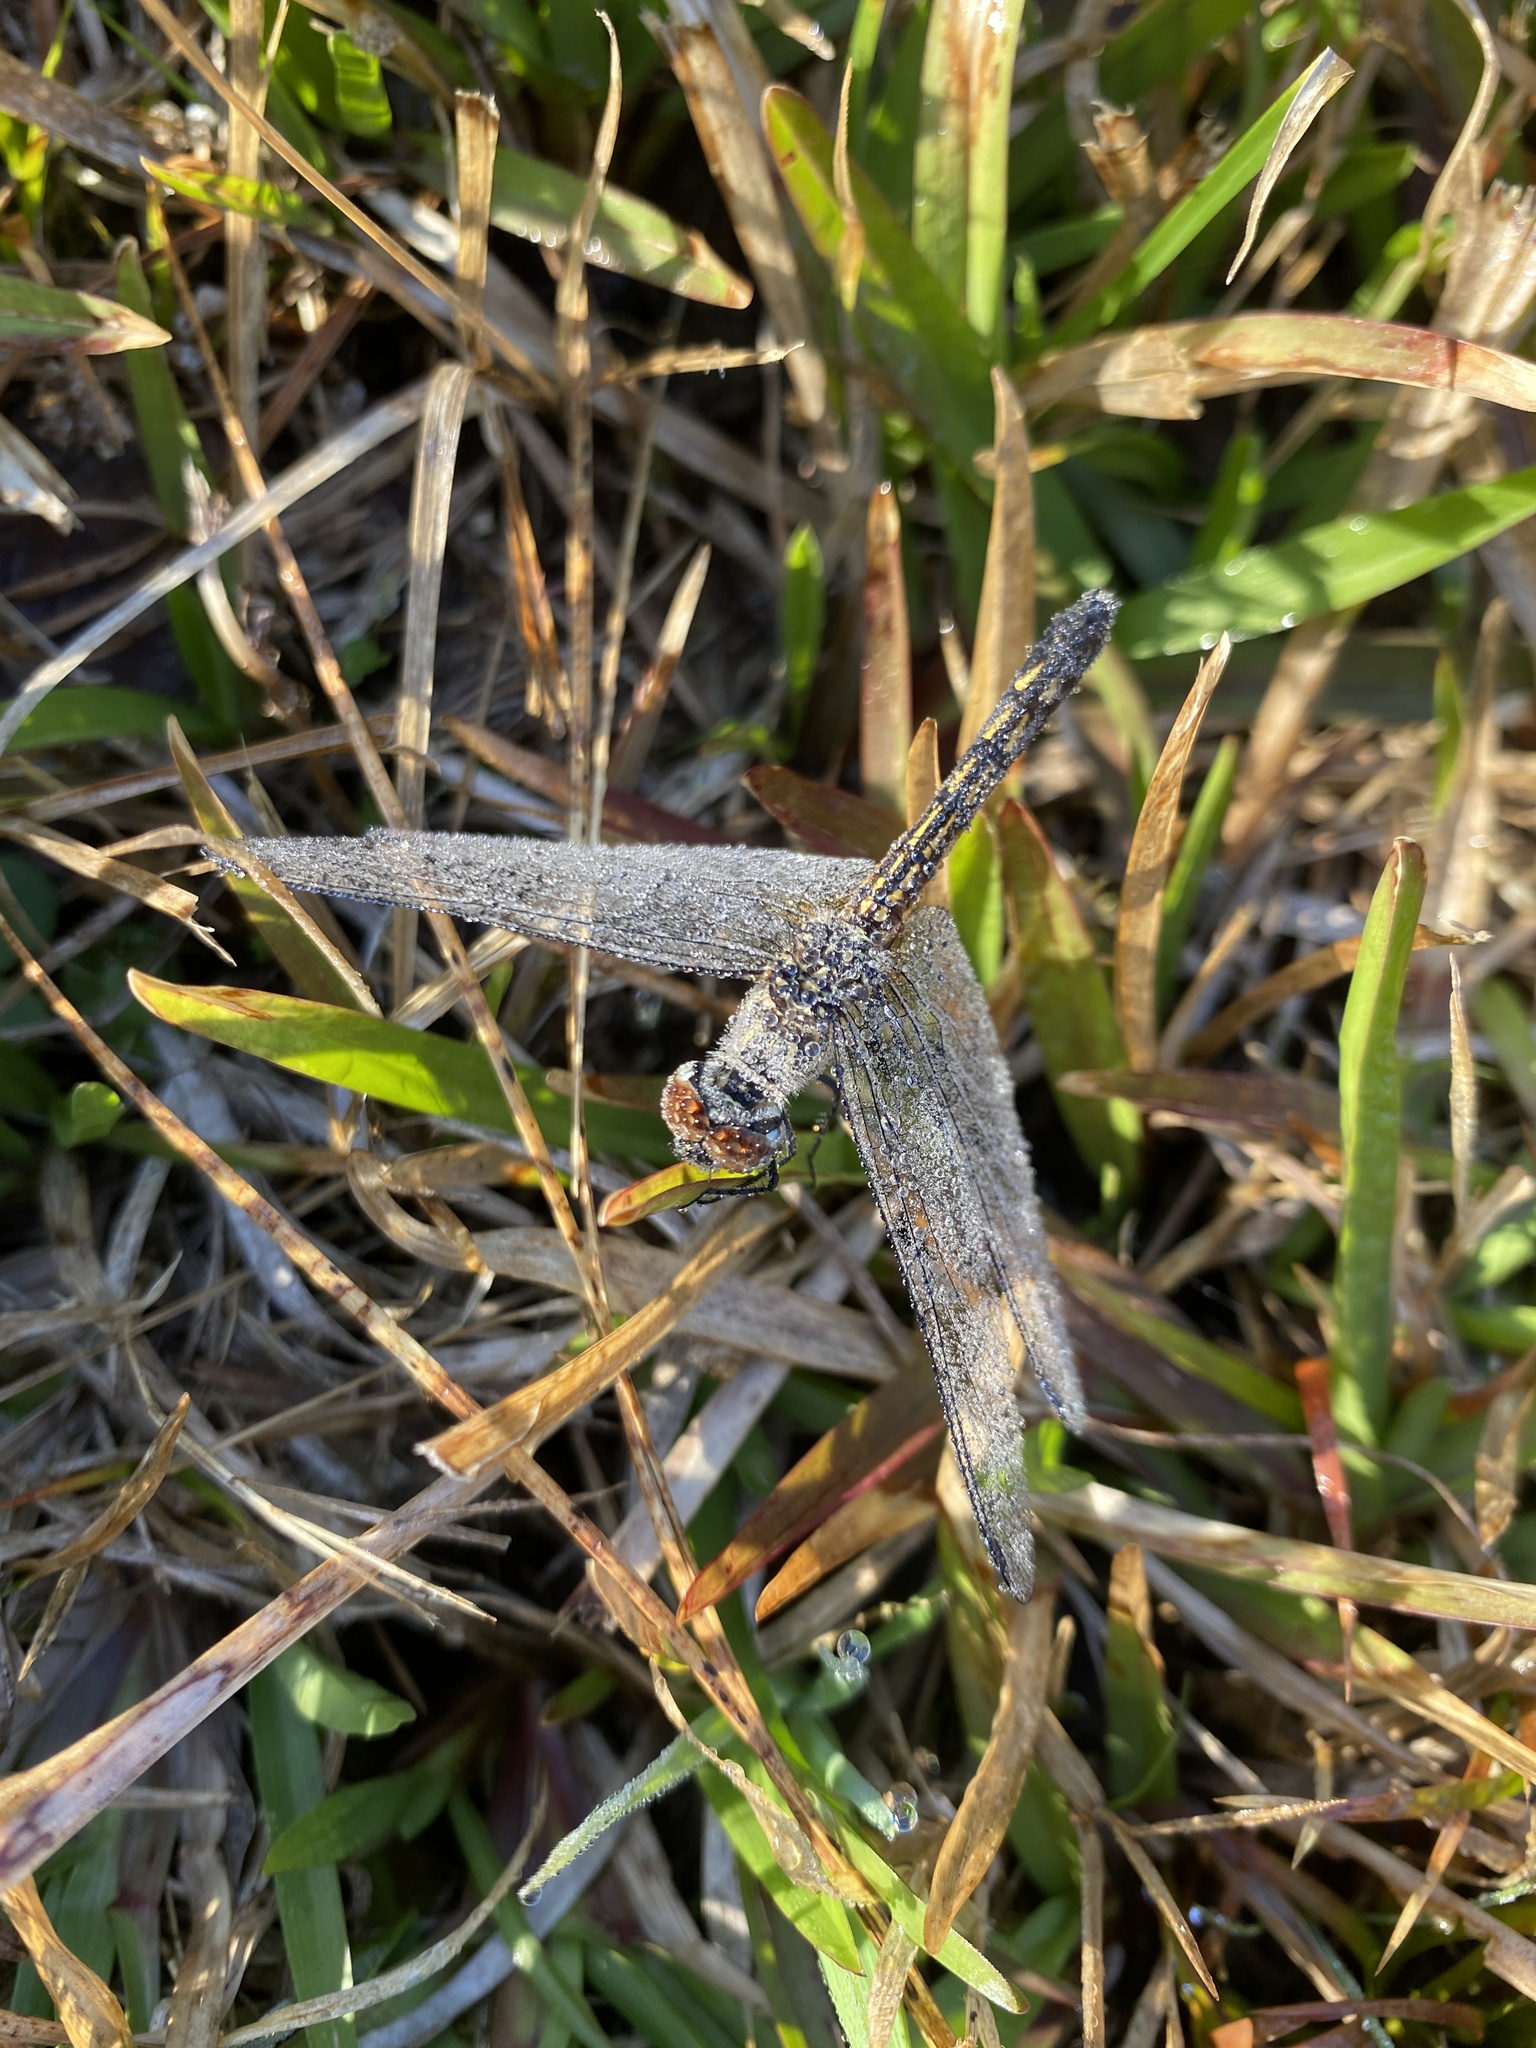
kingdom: Animalia
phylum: Arthropoda
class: Insecta
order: Odonata
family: Libellulidae
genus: Pachydiplax
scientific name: Pachydiplax longipennis
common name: Blue dasher
